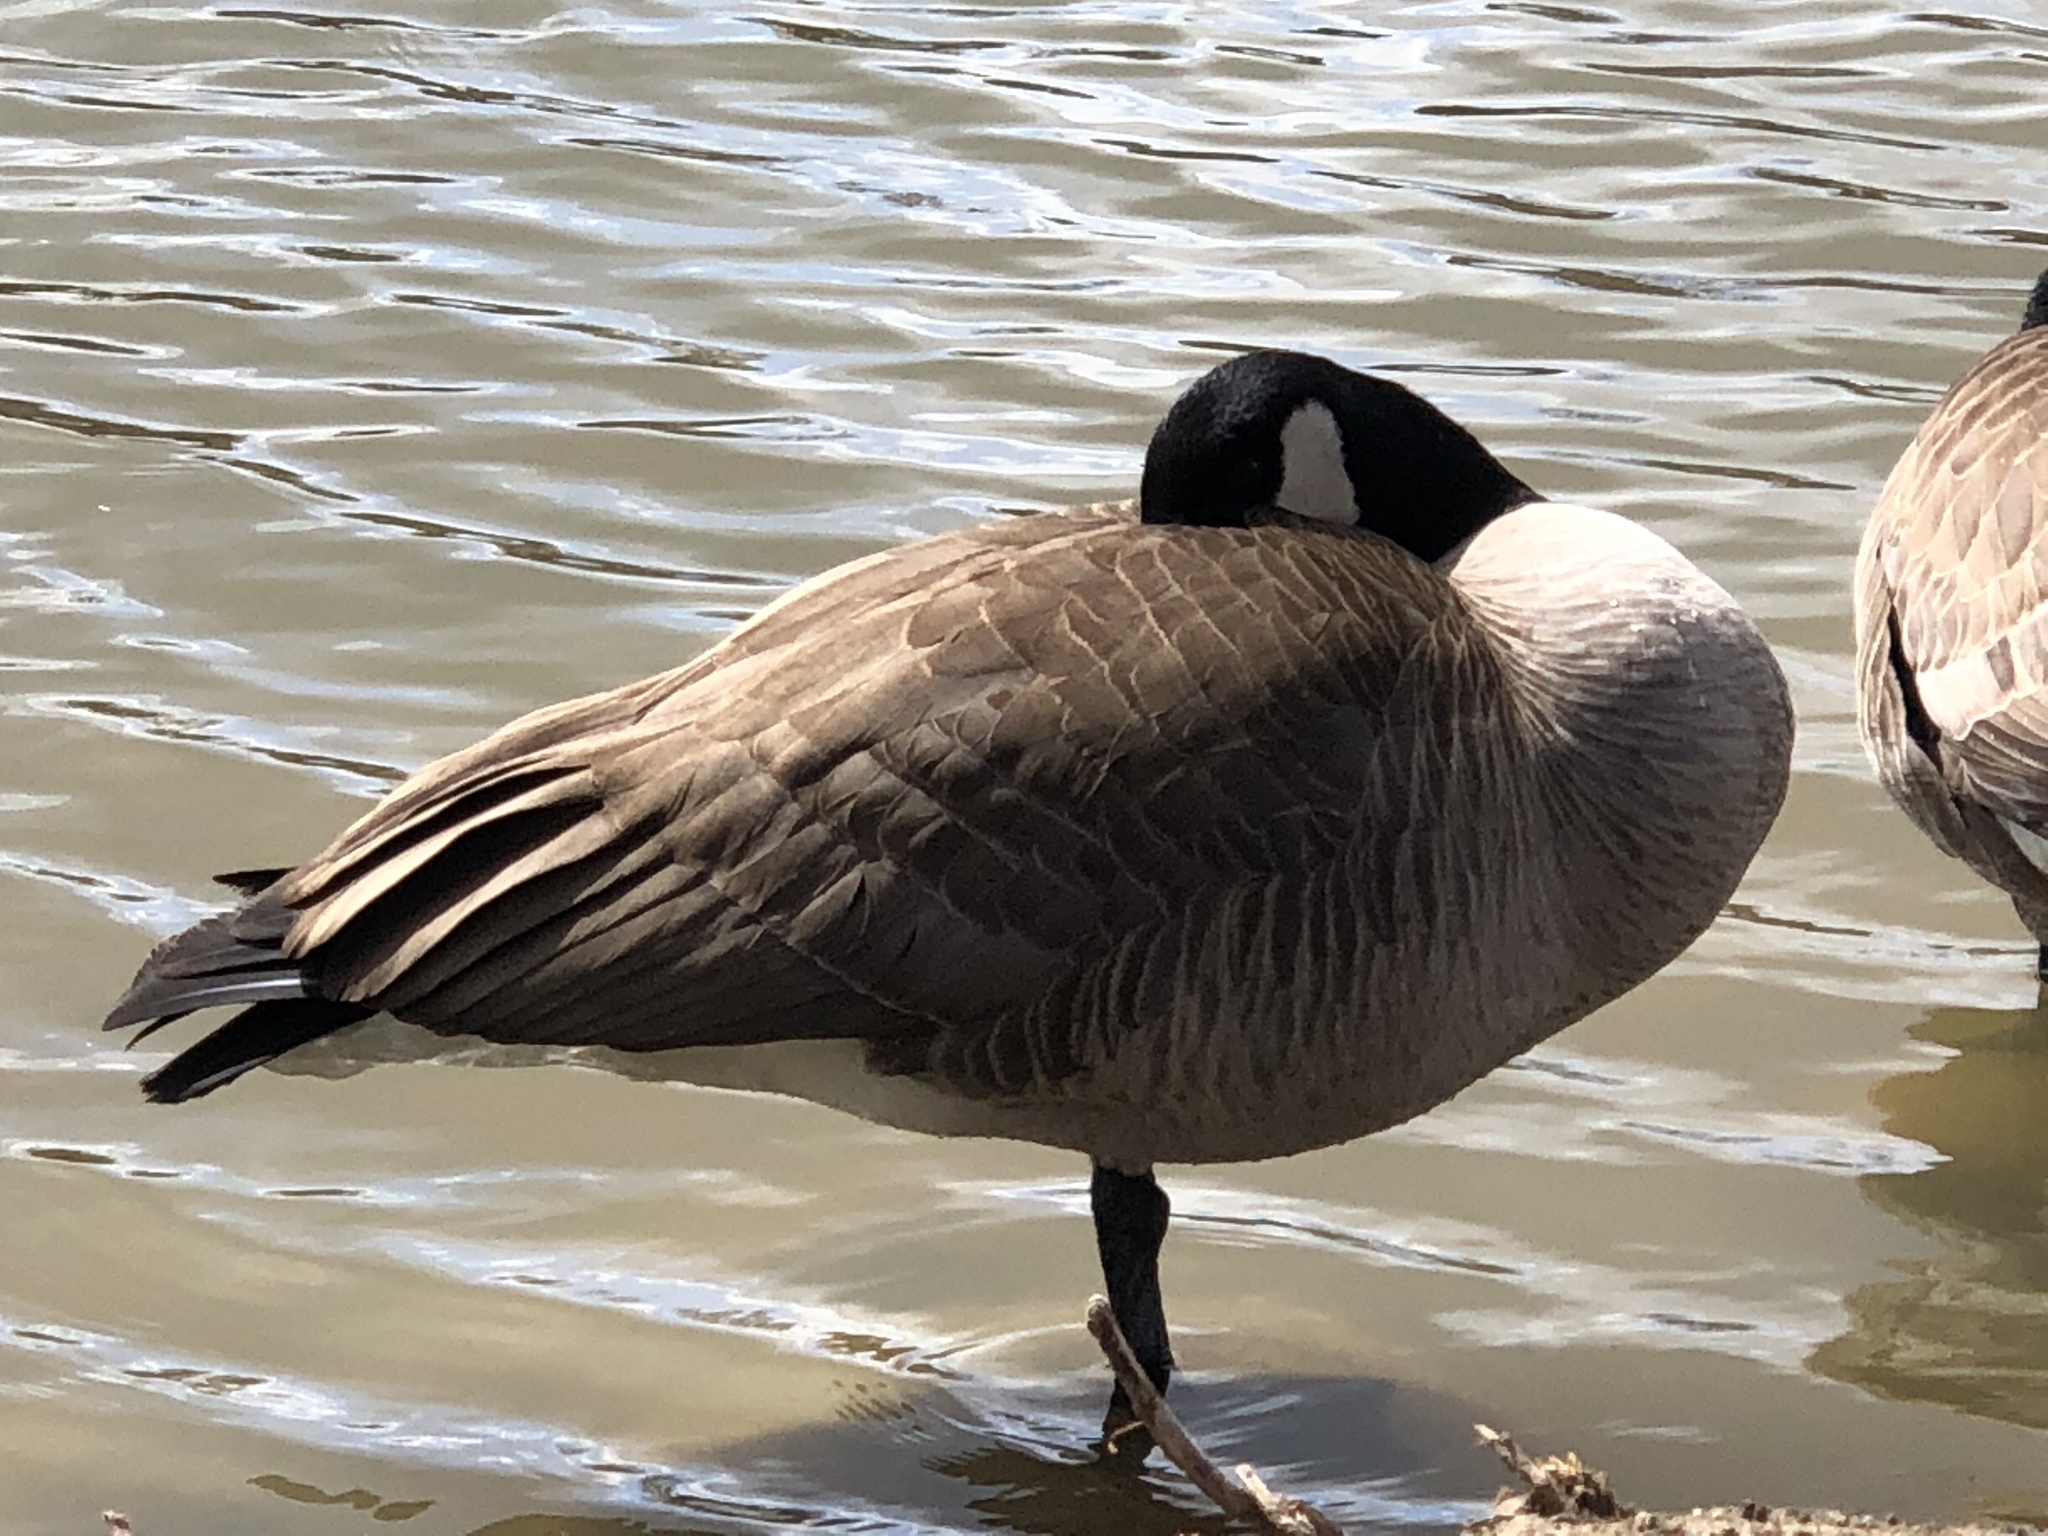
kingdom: Animalia
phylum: Chordata
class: Aves
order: Anseriformes
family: Anatidae
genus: Branta
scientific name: Branta canadensis
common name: Canada goose
